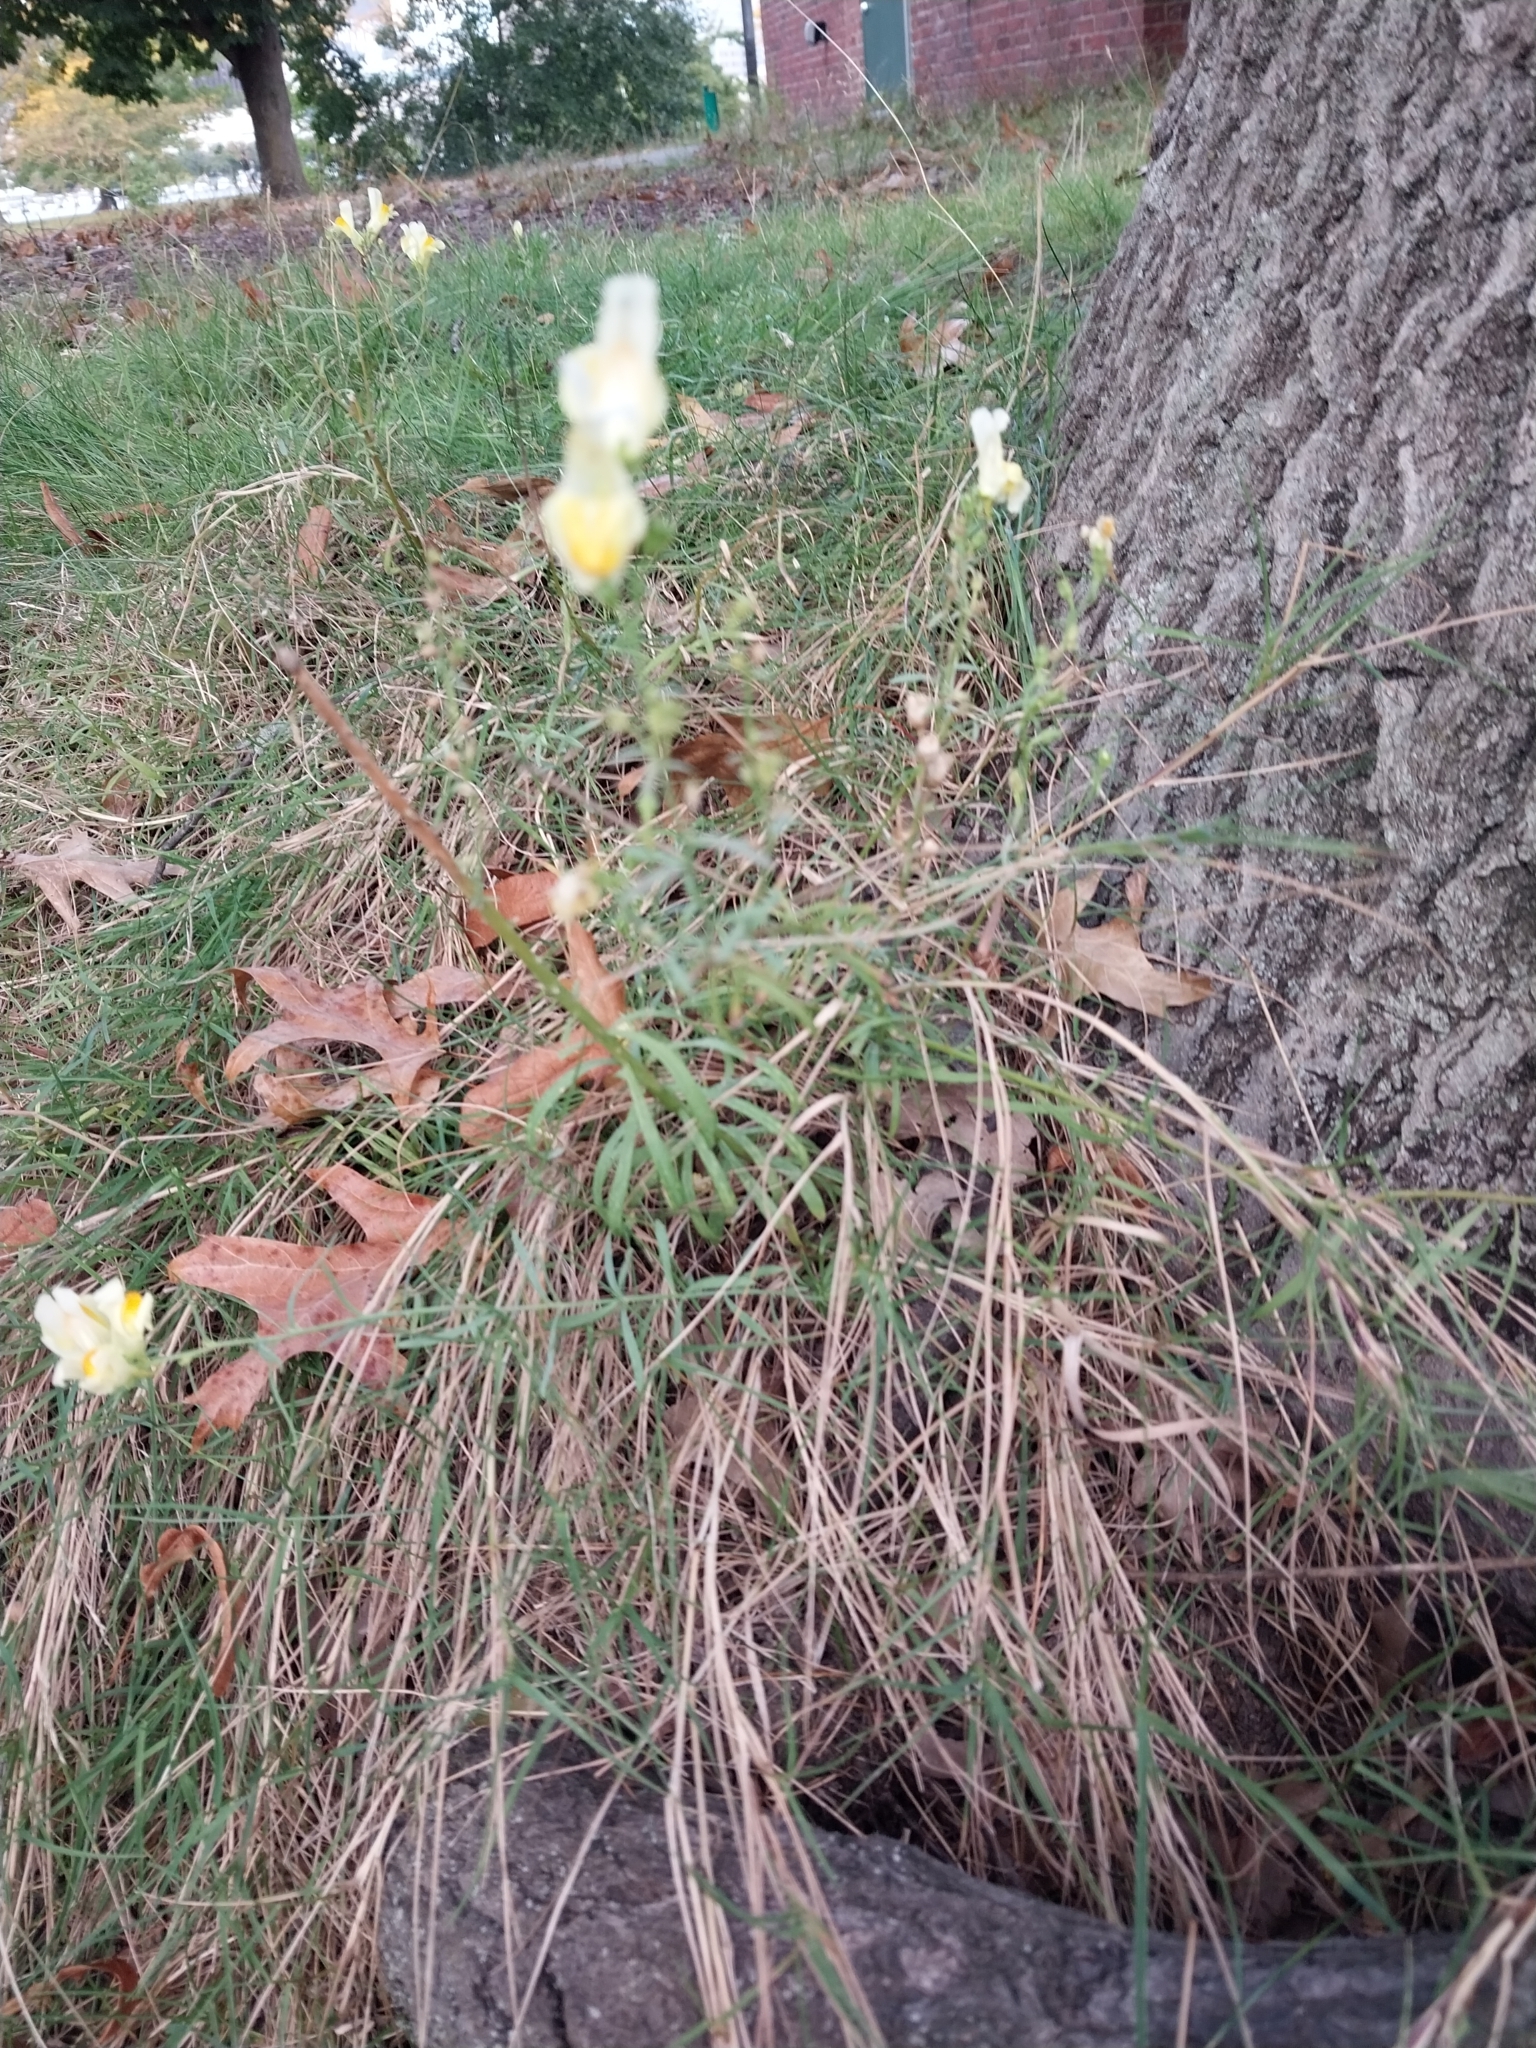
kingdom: Plantae
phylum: Tracheophyta
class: Magnoliopsida
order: Lamiales
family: Plantaginaceae
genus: Linaria
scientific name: Linaria vulgaris
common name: Butter and eggs
